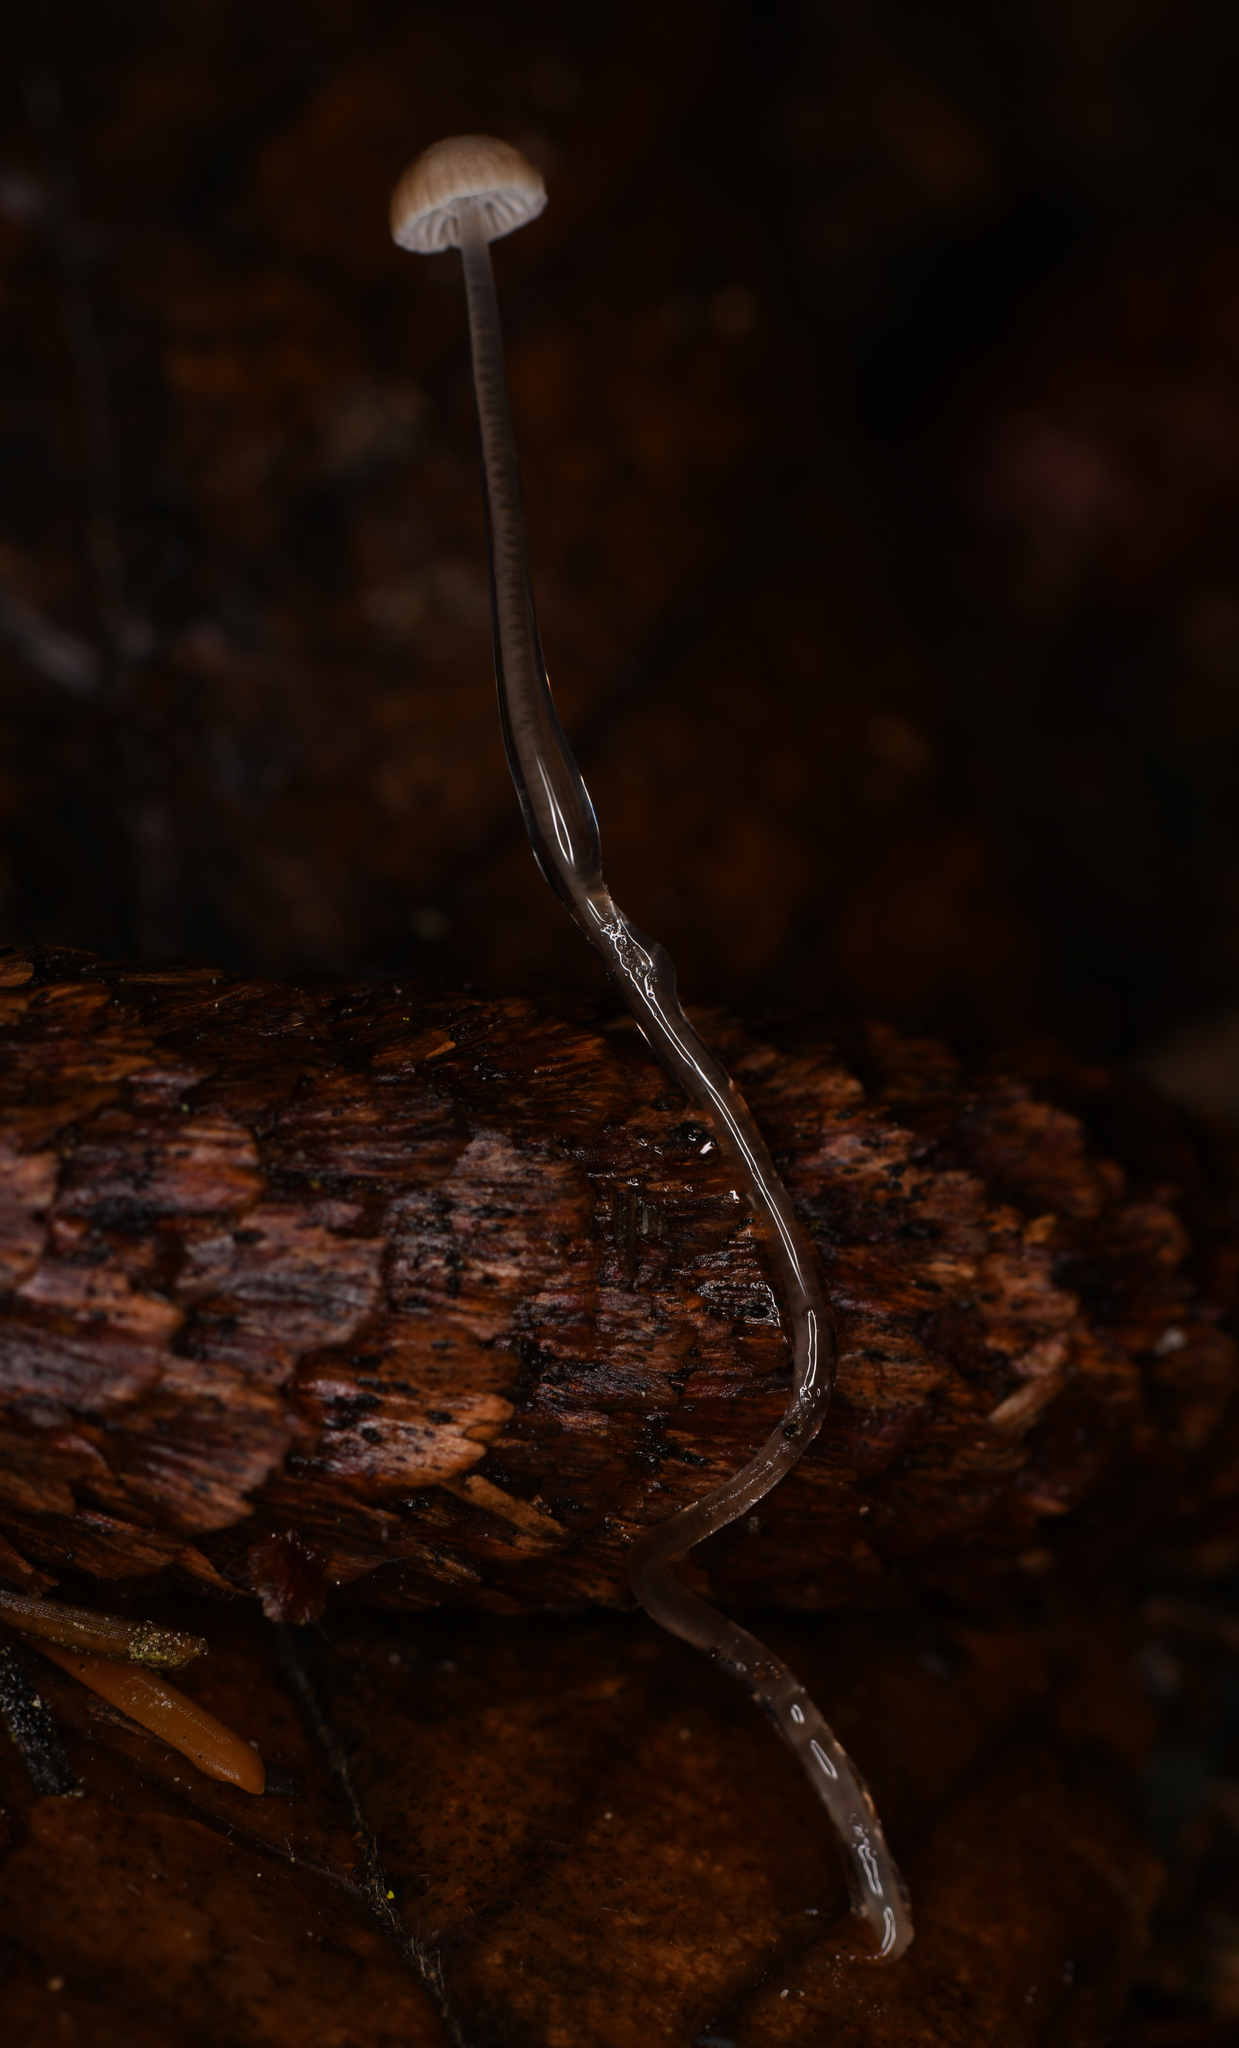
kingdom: Fungi
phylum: Basidiomycota
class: Agaricomycetes
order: Agaricales
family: Mycenaceae
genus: Roridomyces
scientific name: Roridomyces roridus
